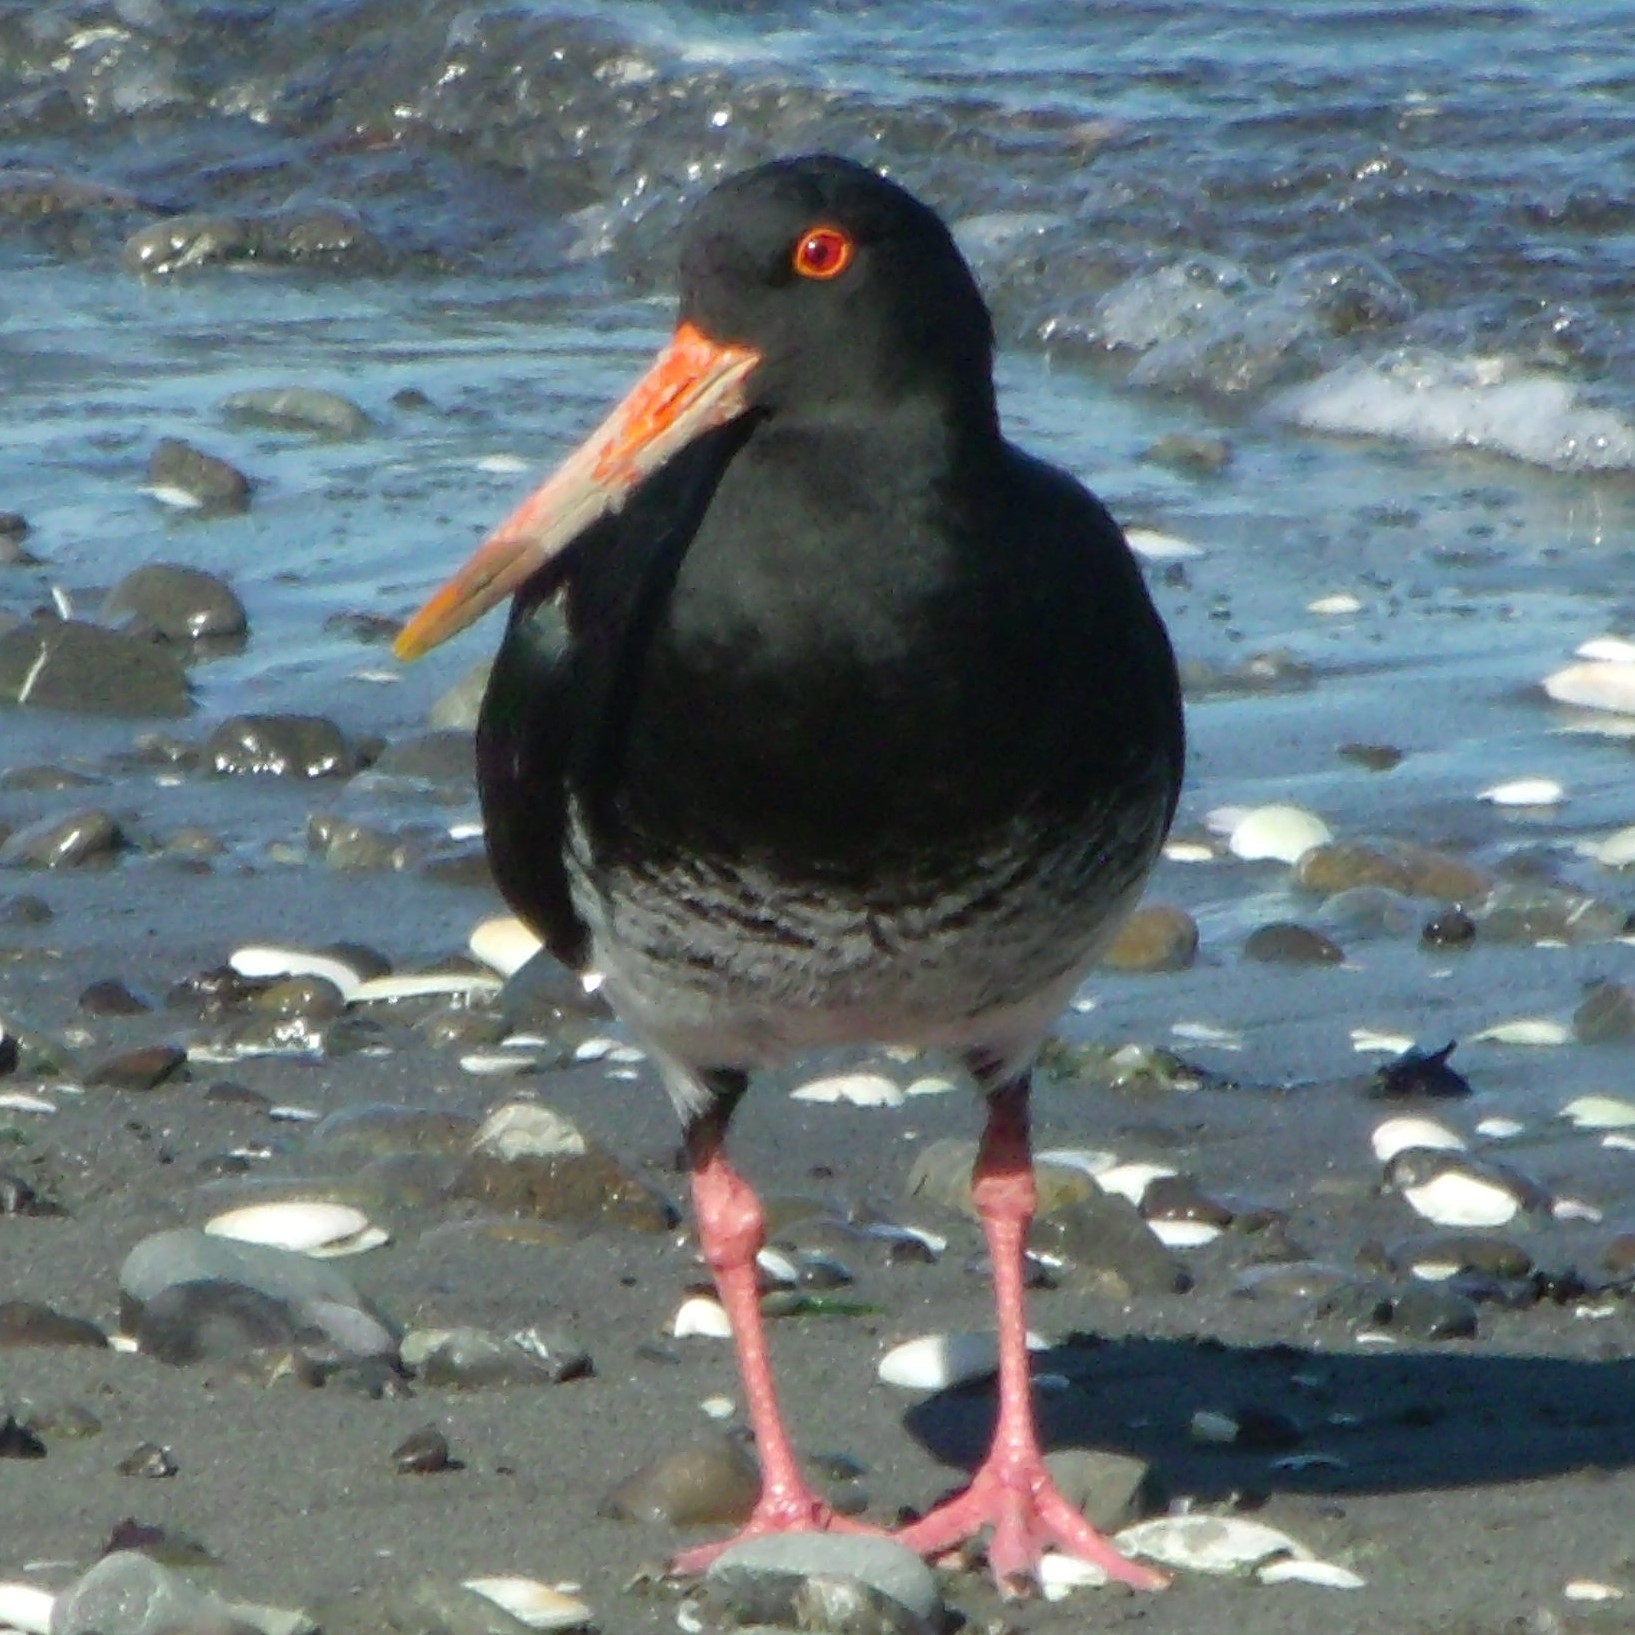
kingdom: Animalia
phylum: Chordata
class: Aves
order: Charadriiformes
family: Haematopodidae
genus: Haematopus
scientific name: Haematopus unicolor
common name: Variable oystercatcher
